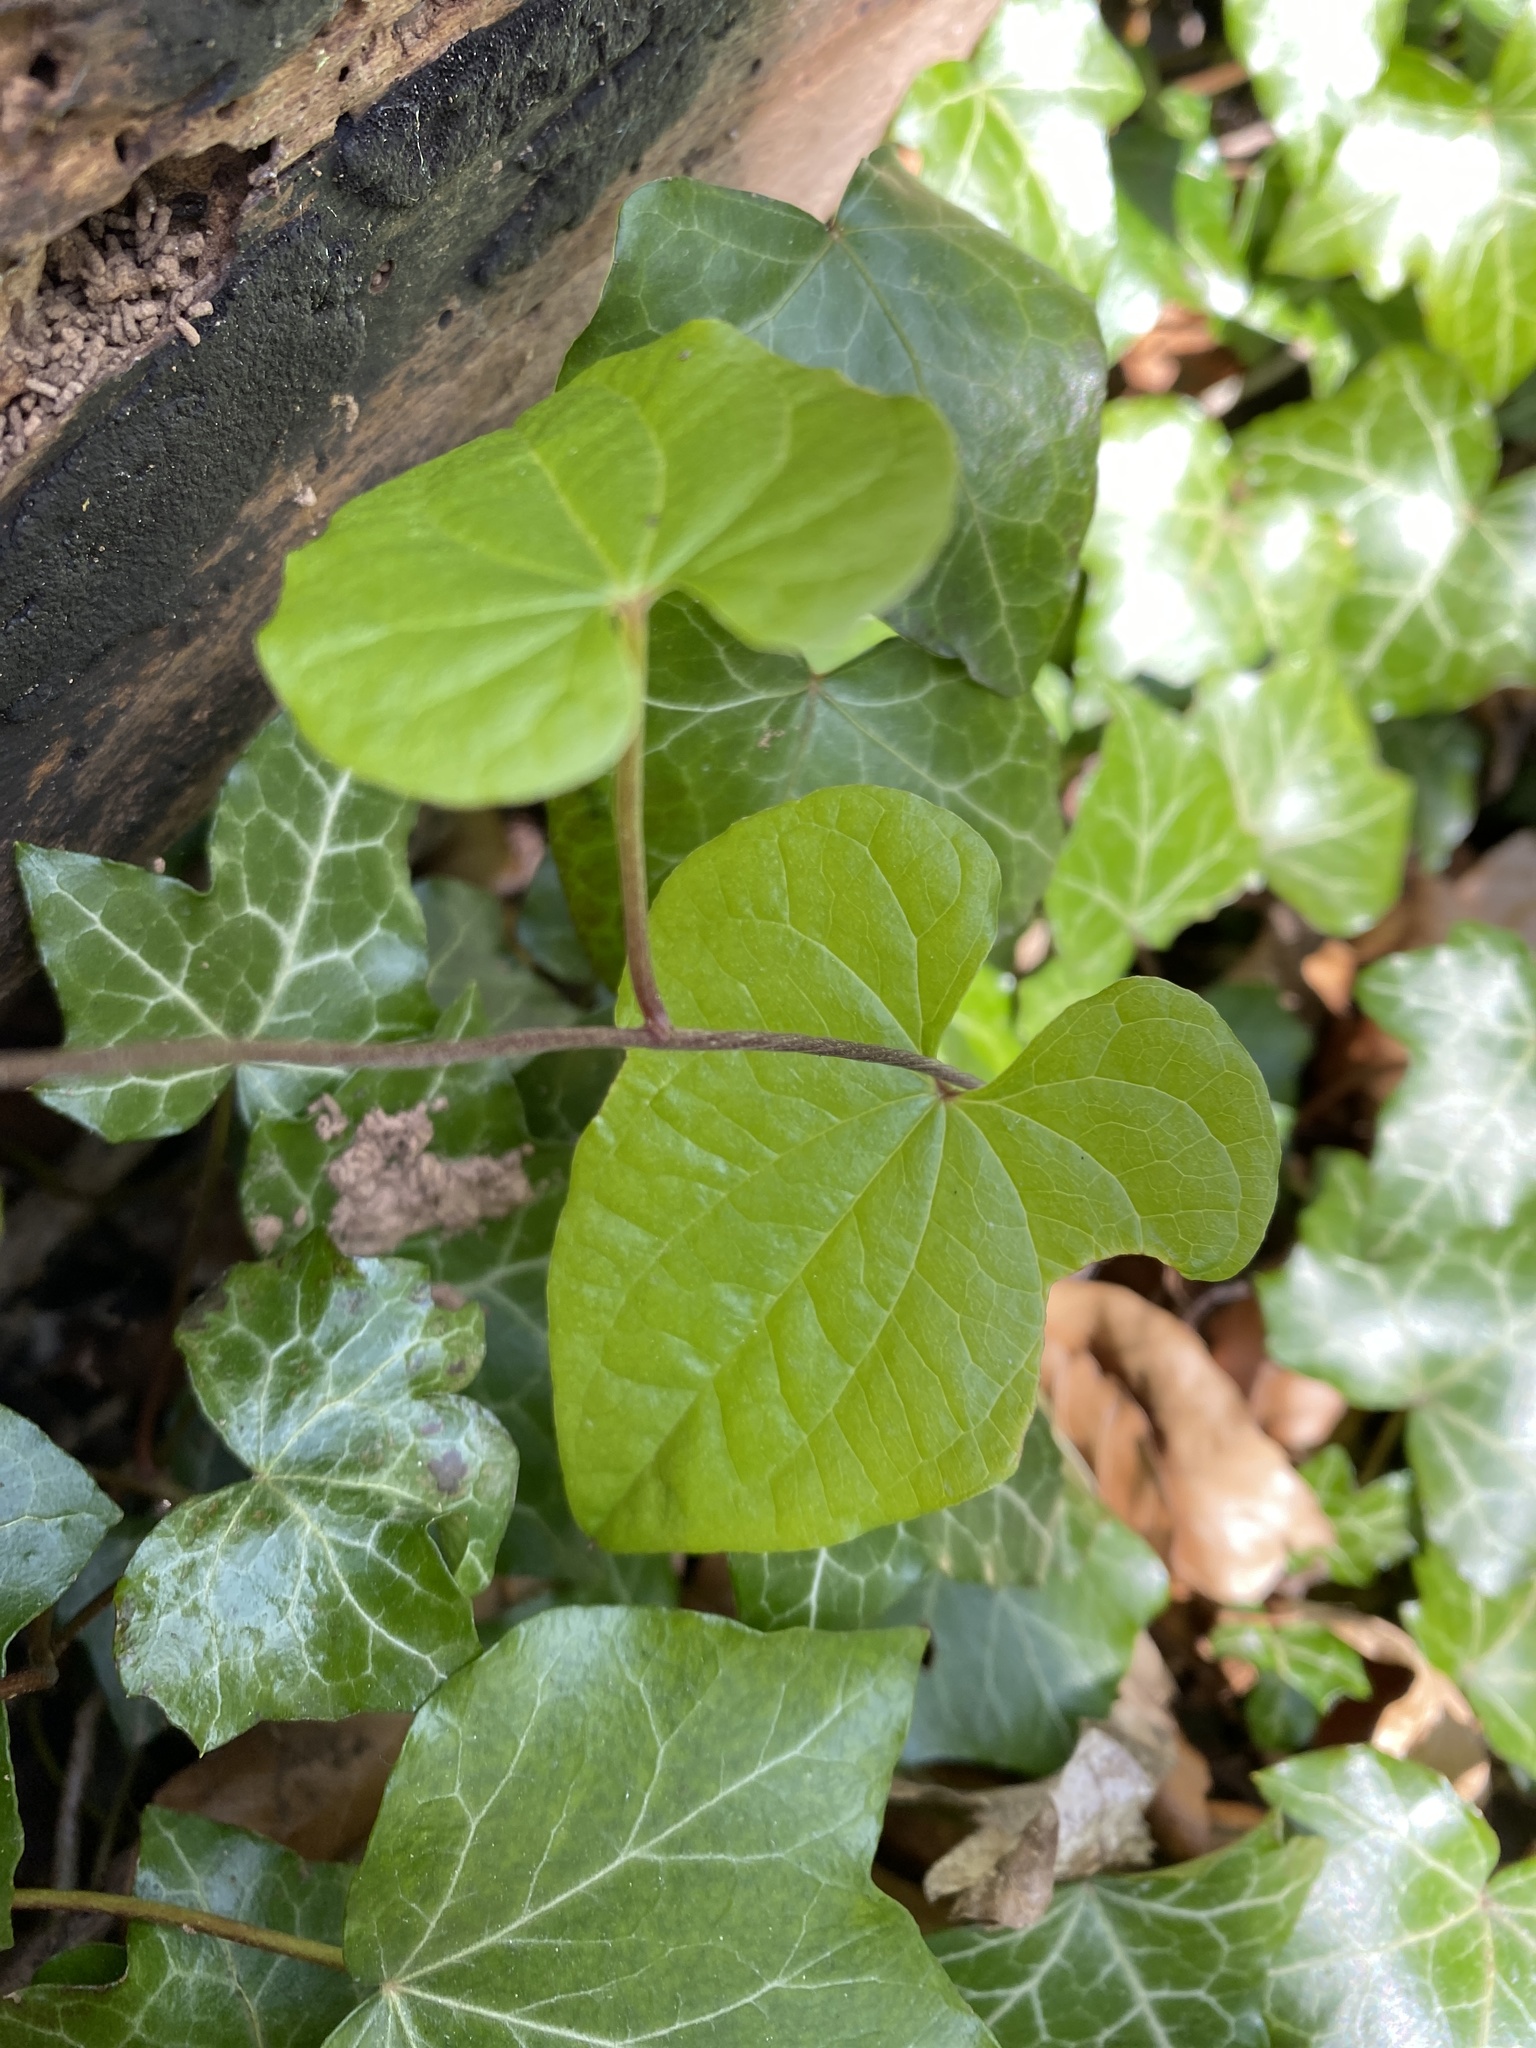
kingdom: Plantae
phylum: Tracheophyta
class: Liliopsida
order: Dioscoreales
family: Dioscoreaceae
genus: Dioscorea
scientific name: Dioscorea communis
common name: Black-bindweed
